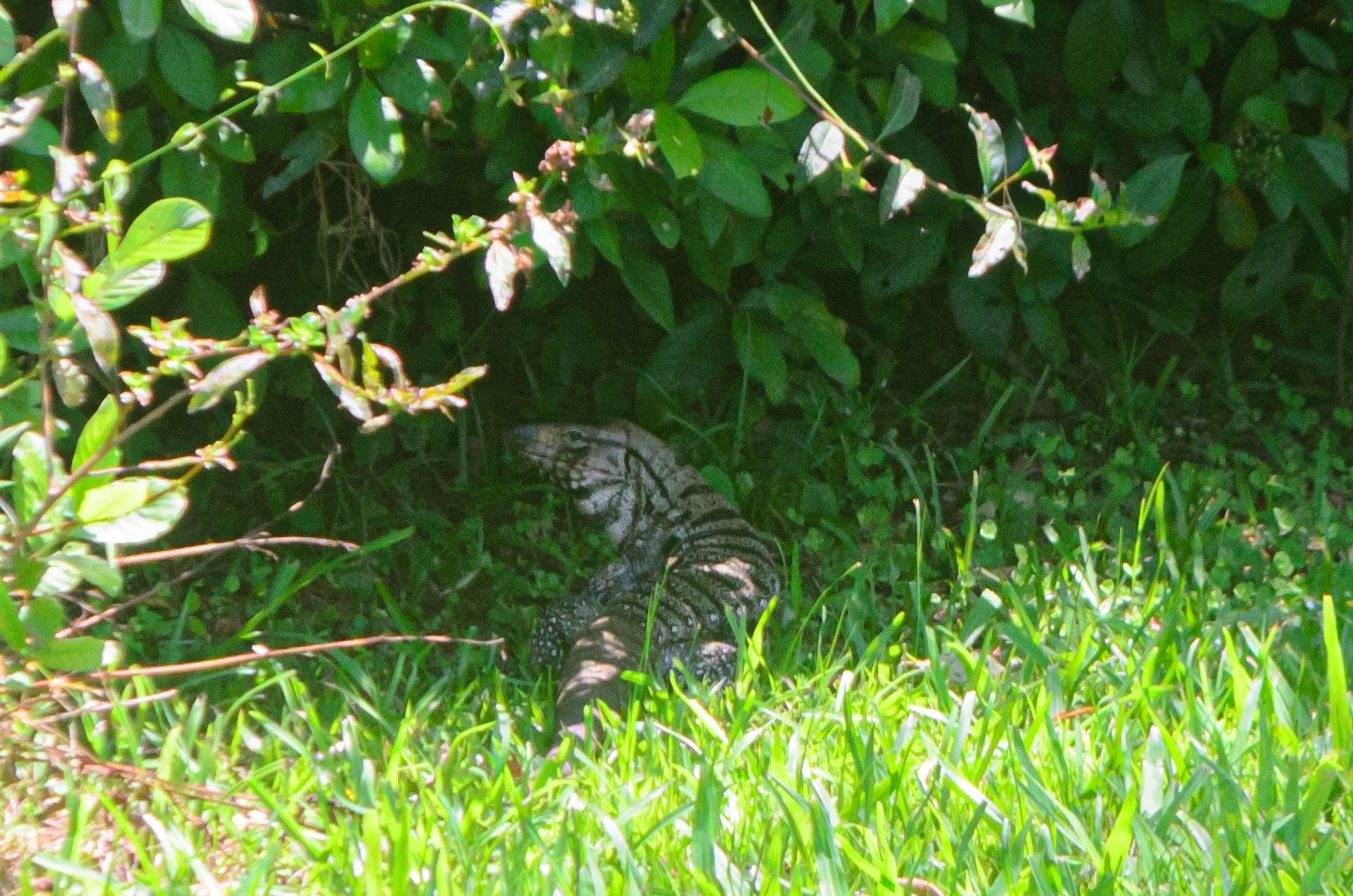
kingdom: Animalia
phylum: Chordata
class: Squamata
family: Teiidae
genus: Salvator
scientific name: Salvator merianae
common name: Argentine black and white tegu
